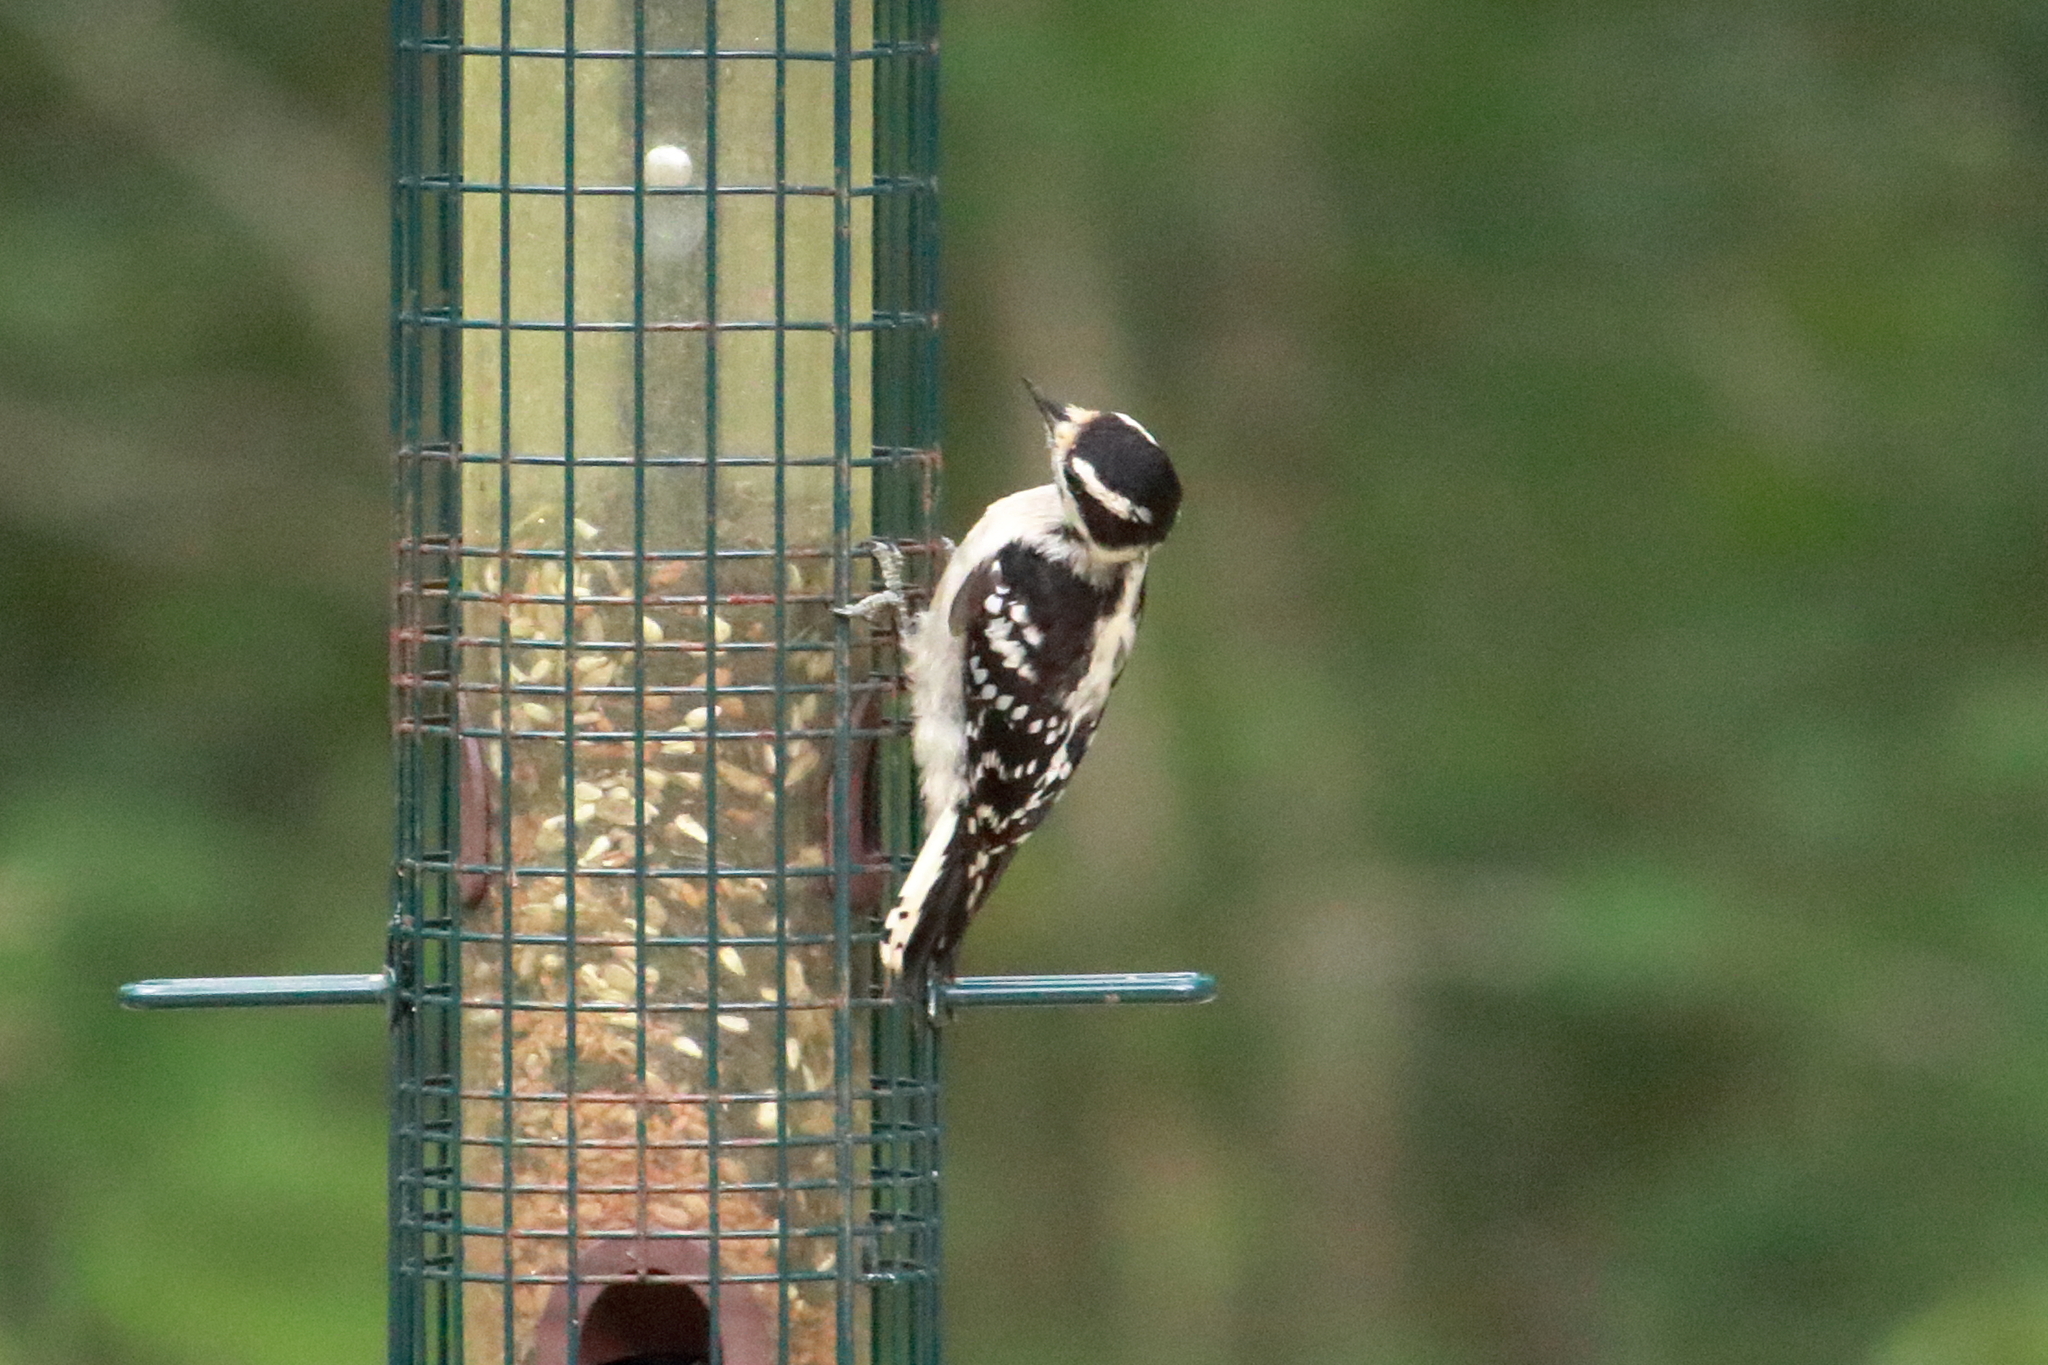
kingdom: Animalia
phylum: Chordata
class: Aves
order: Piciformes
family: Picidae
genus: Dryobates
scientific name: Dryobates pubescens
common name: Downy woodpecker
